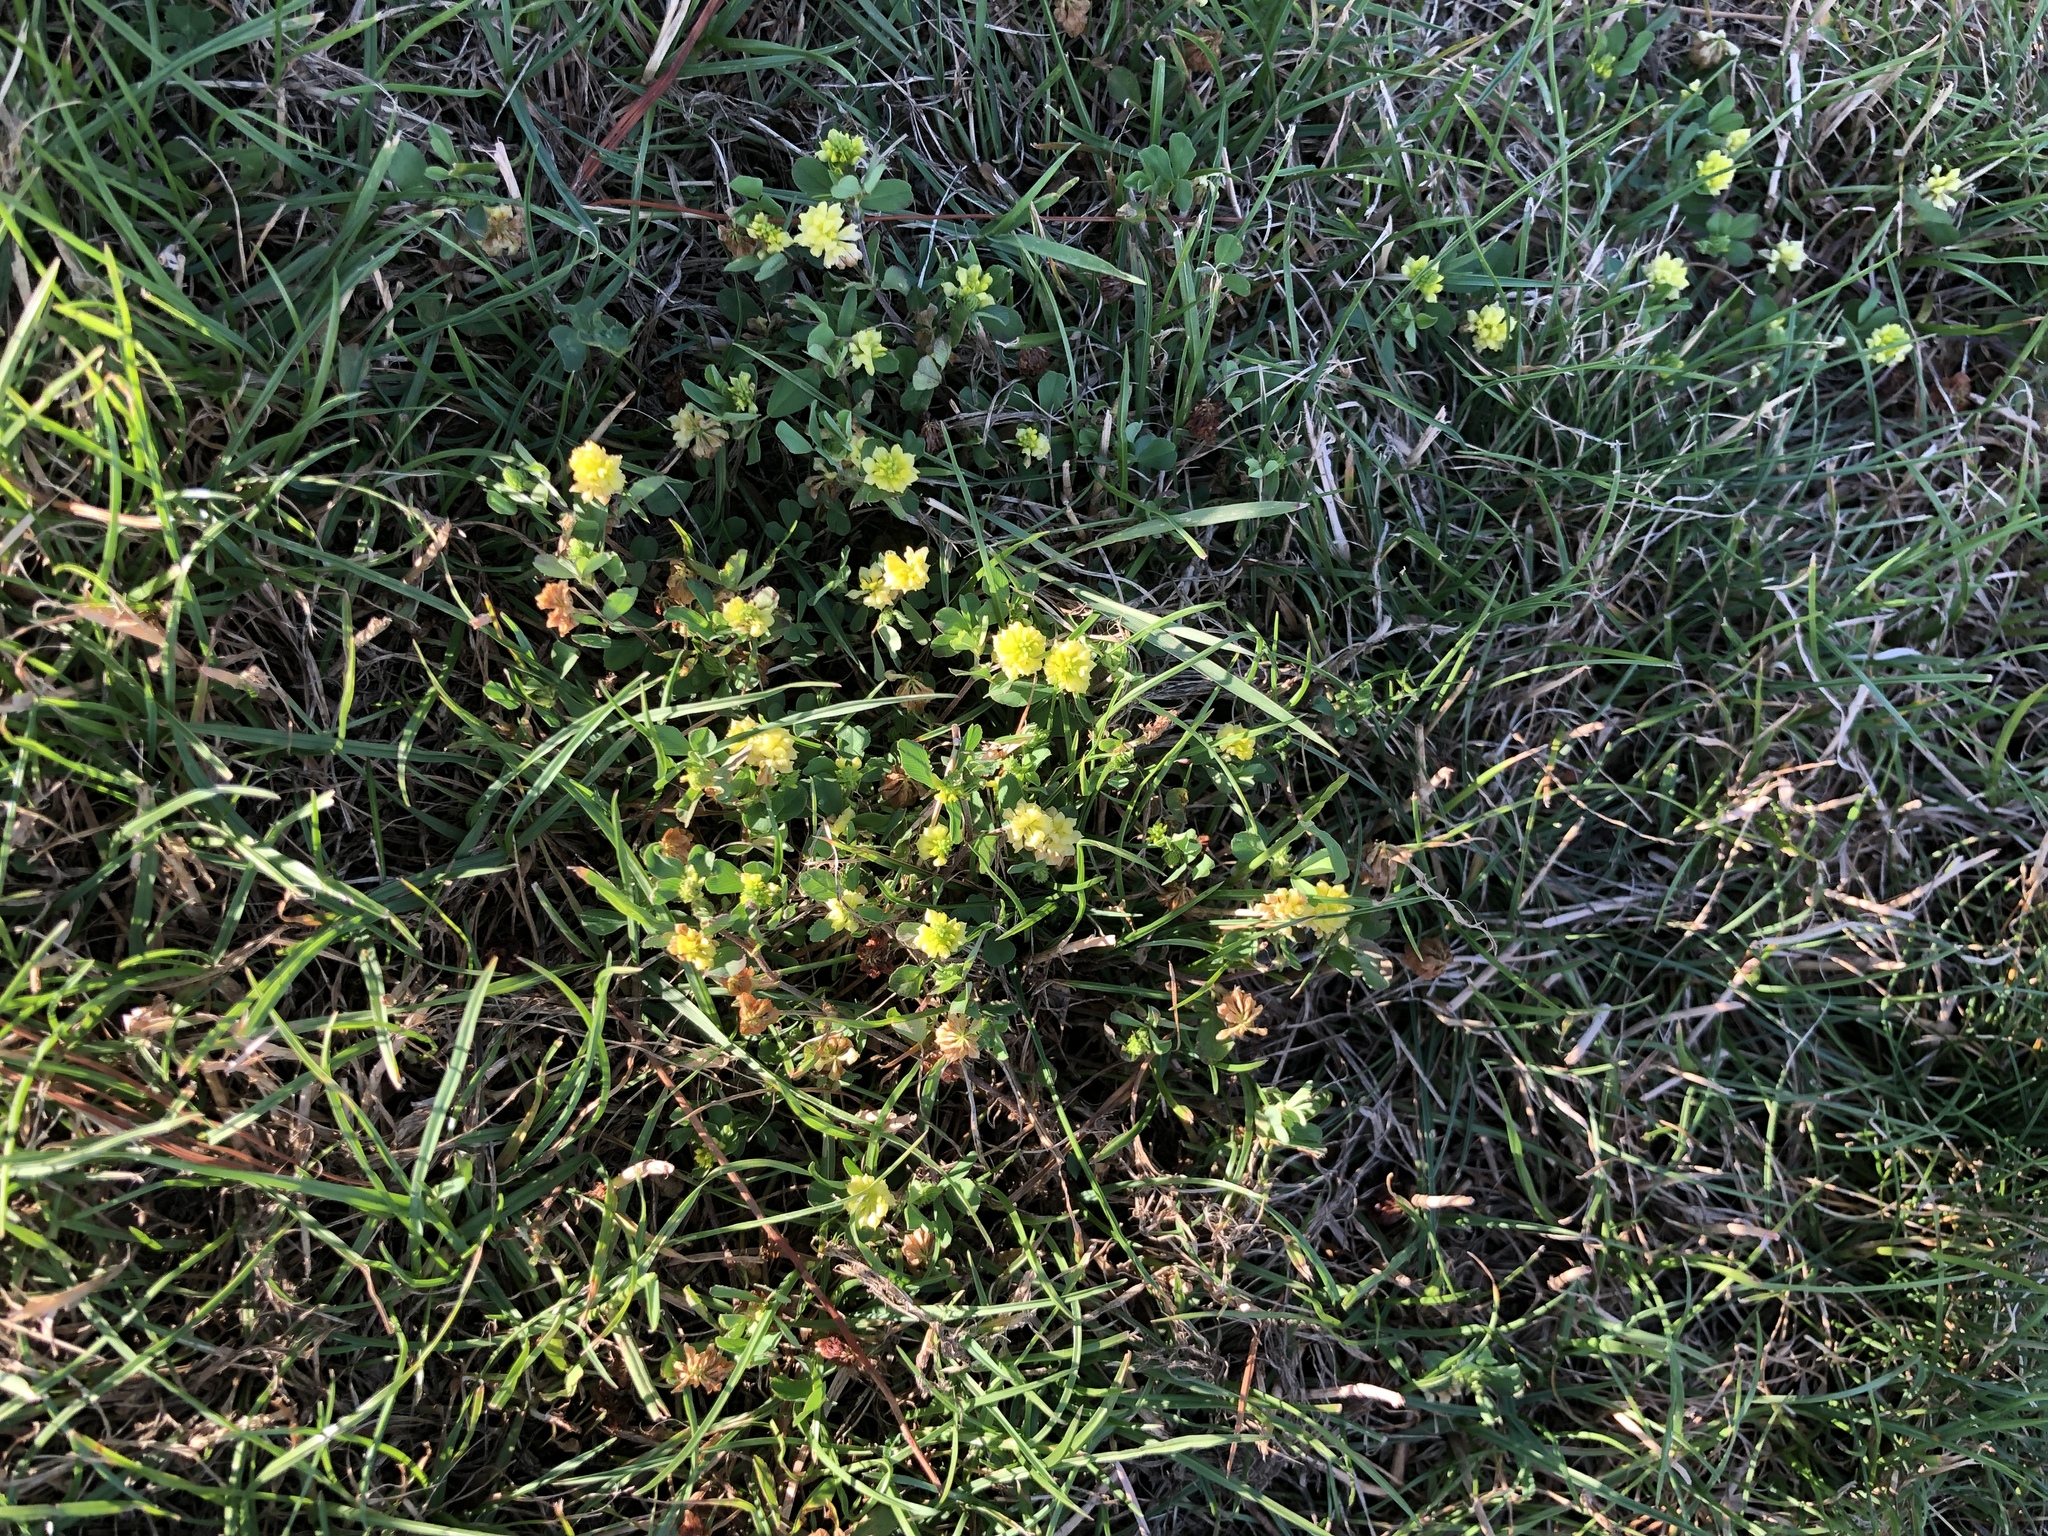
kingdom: Plantae
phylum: Tracheophyta
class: Magnoliopsida
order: Fabales
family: Fabaceae
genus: Trifolium
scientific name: Trifolium campestre
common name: Field clover
